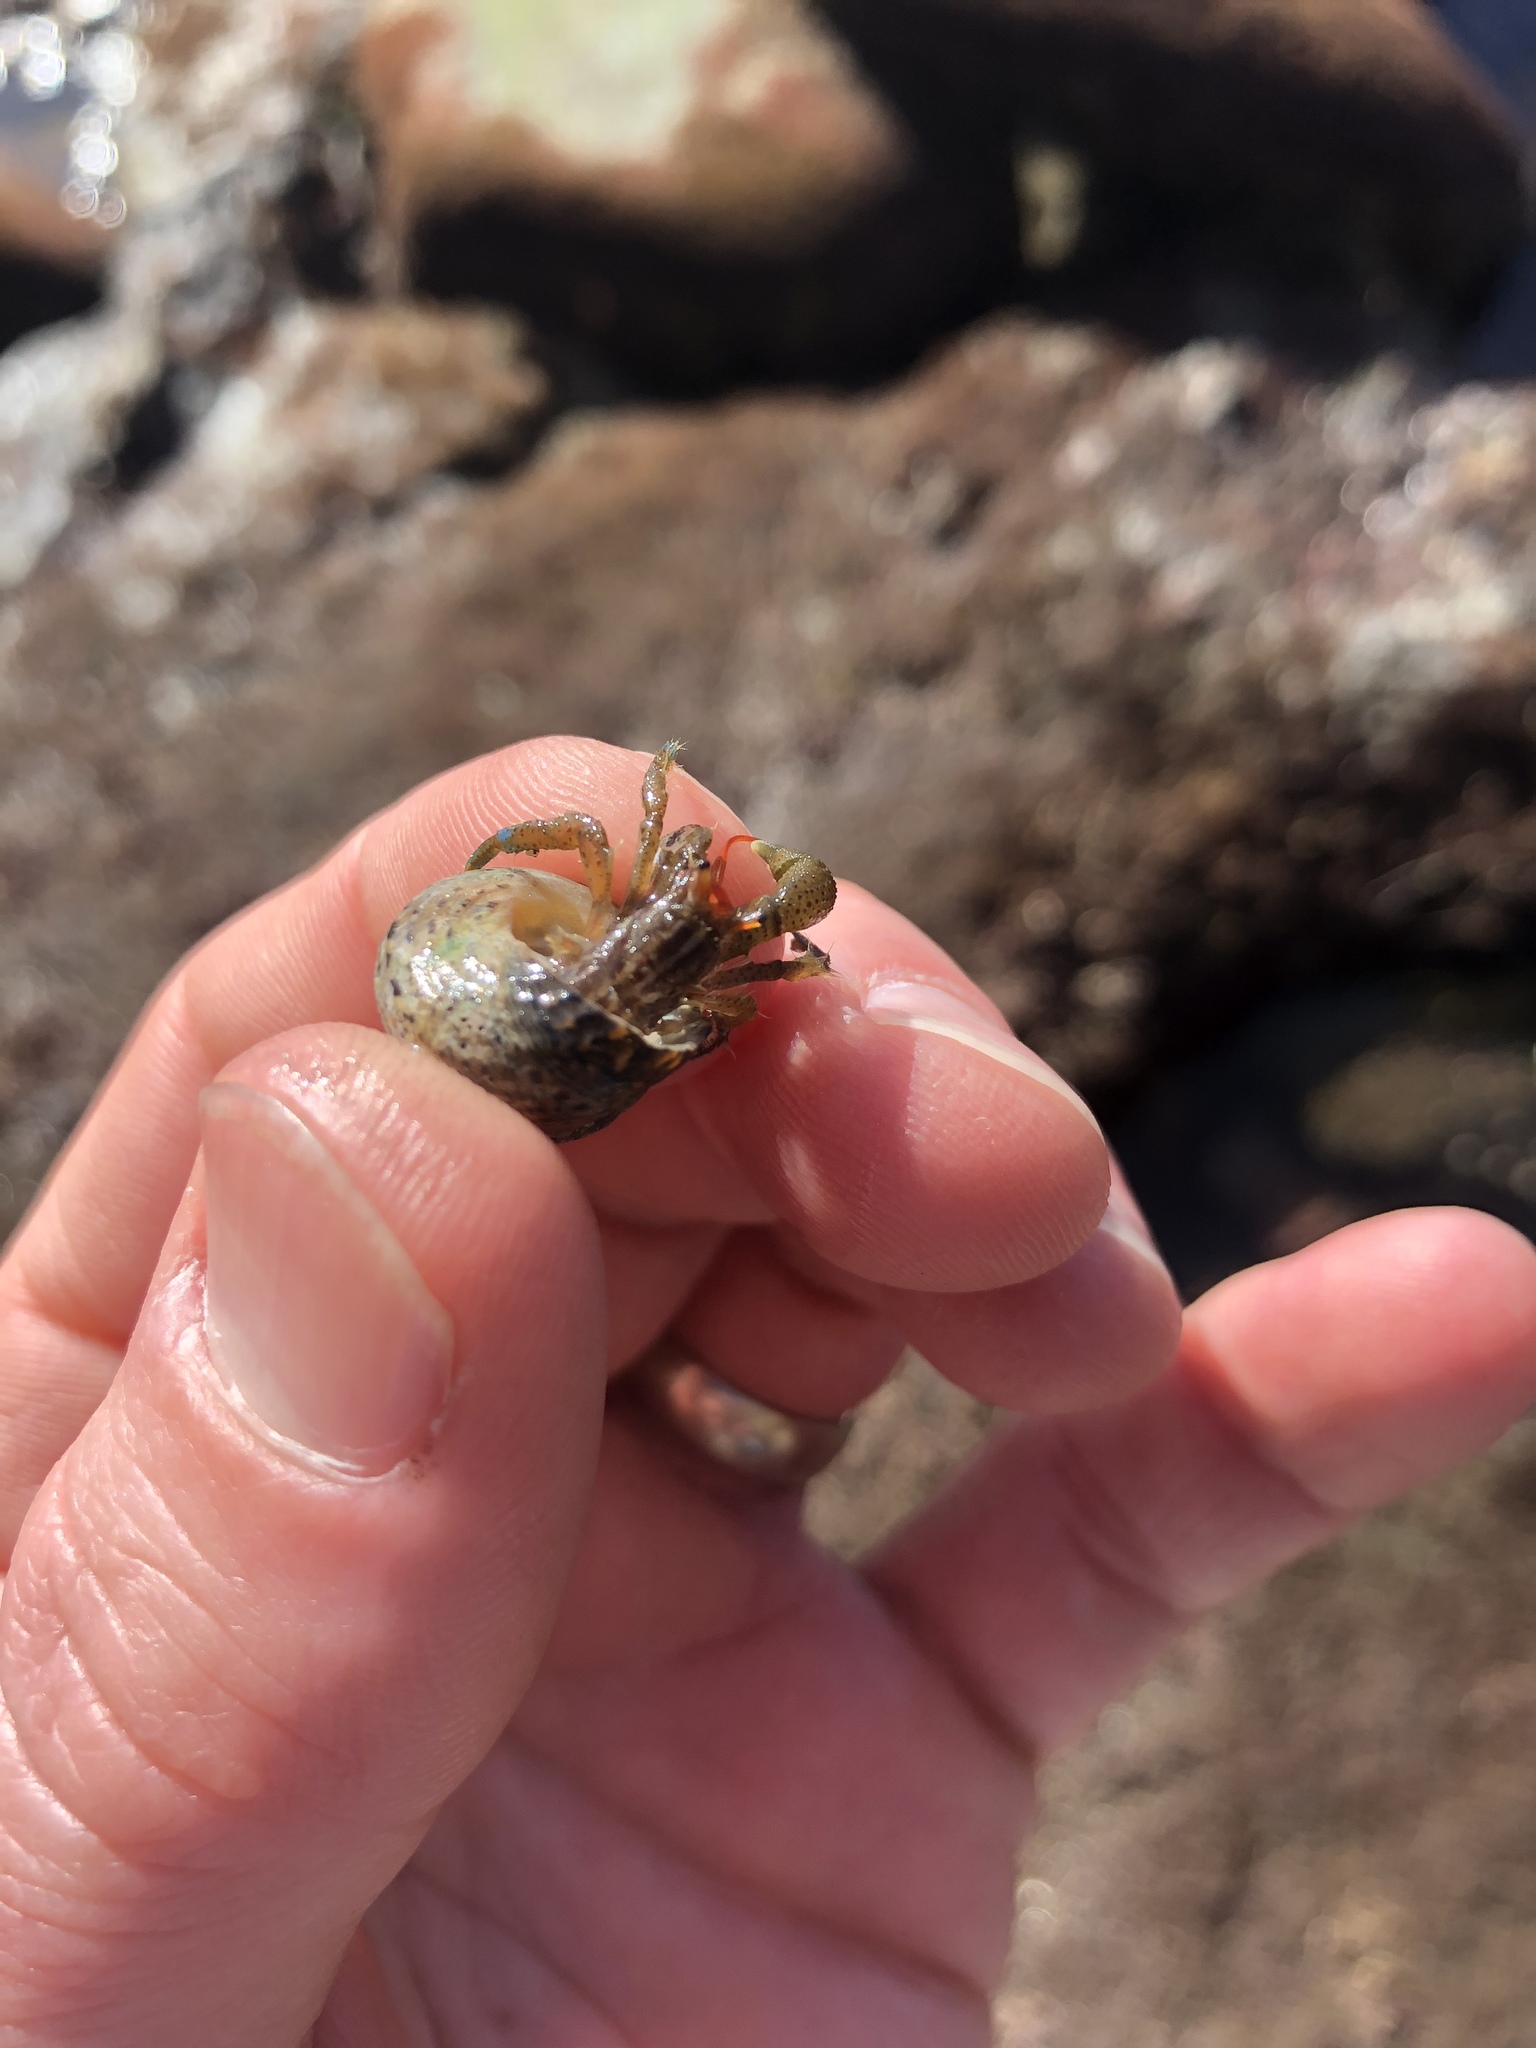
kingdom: Animalia
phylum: Arthropoda
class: Malacostraca
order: Decapoda
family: Paguridae
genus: Pagurus
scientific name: Pagurus samuelis
